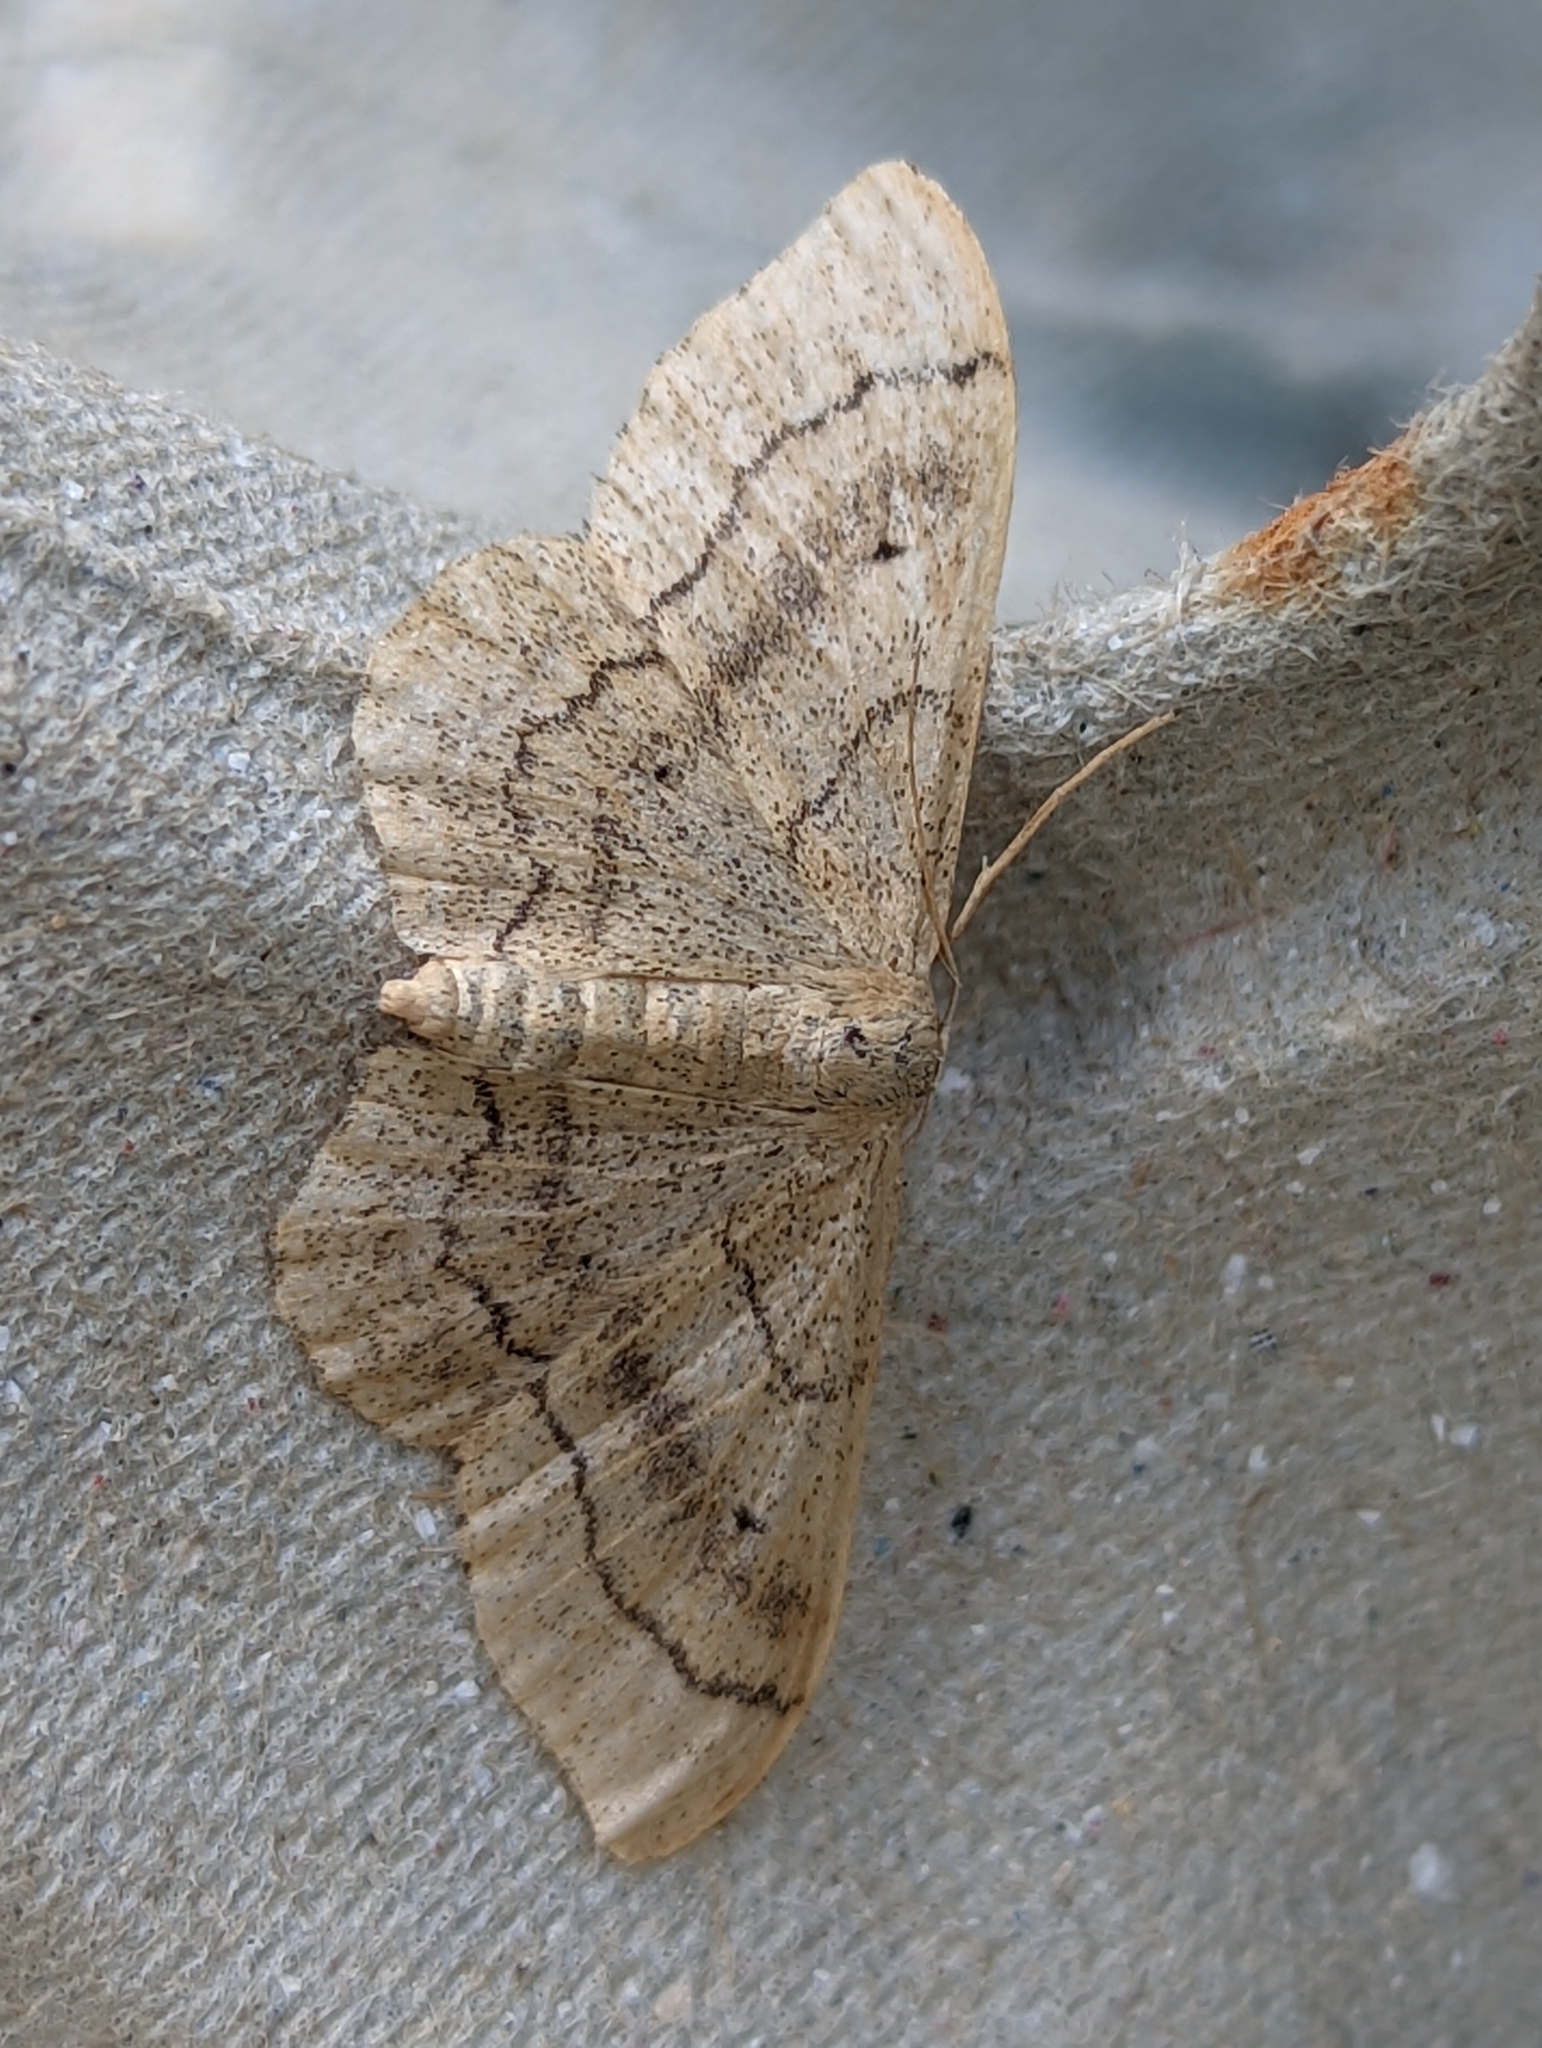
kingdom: Animalia
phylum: Arthropoda
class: Insecta
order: Lepidoptera
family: Geometridae
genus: Idaea
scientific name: Idaea aversata
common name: Riband wave
